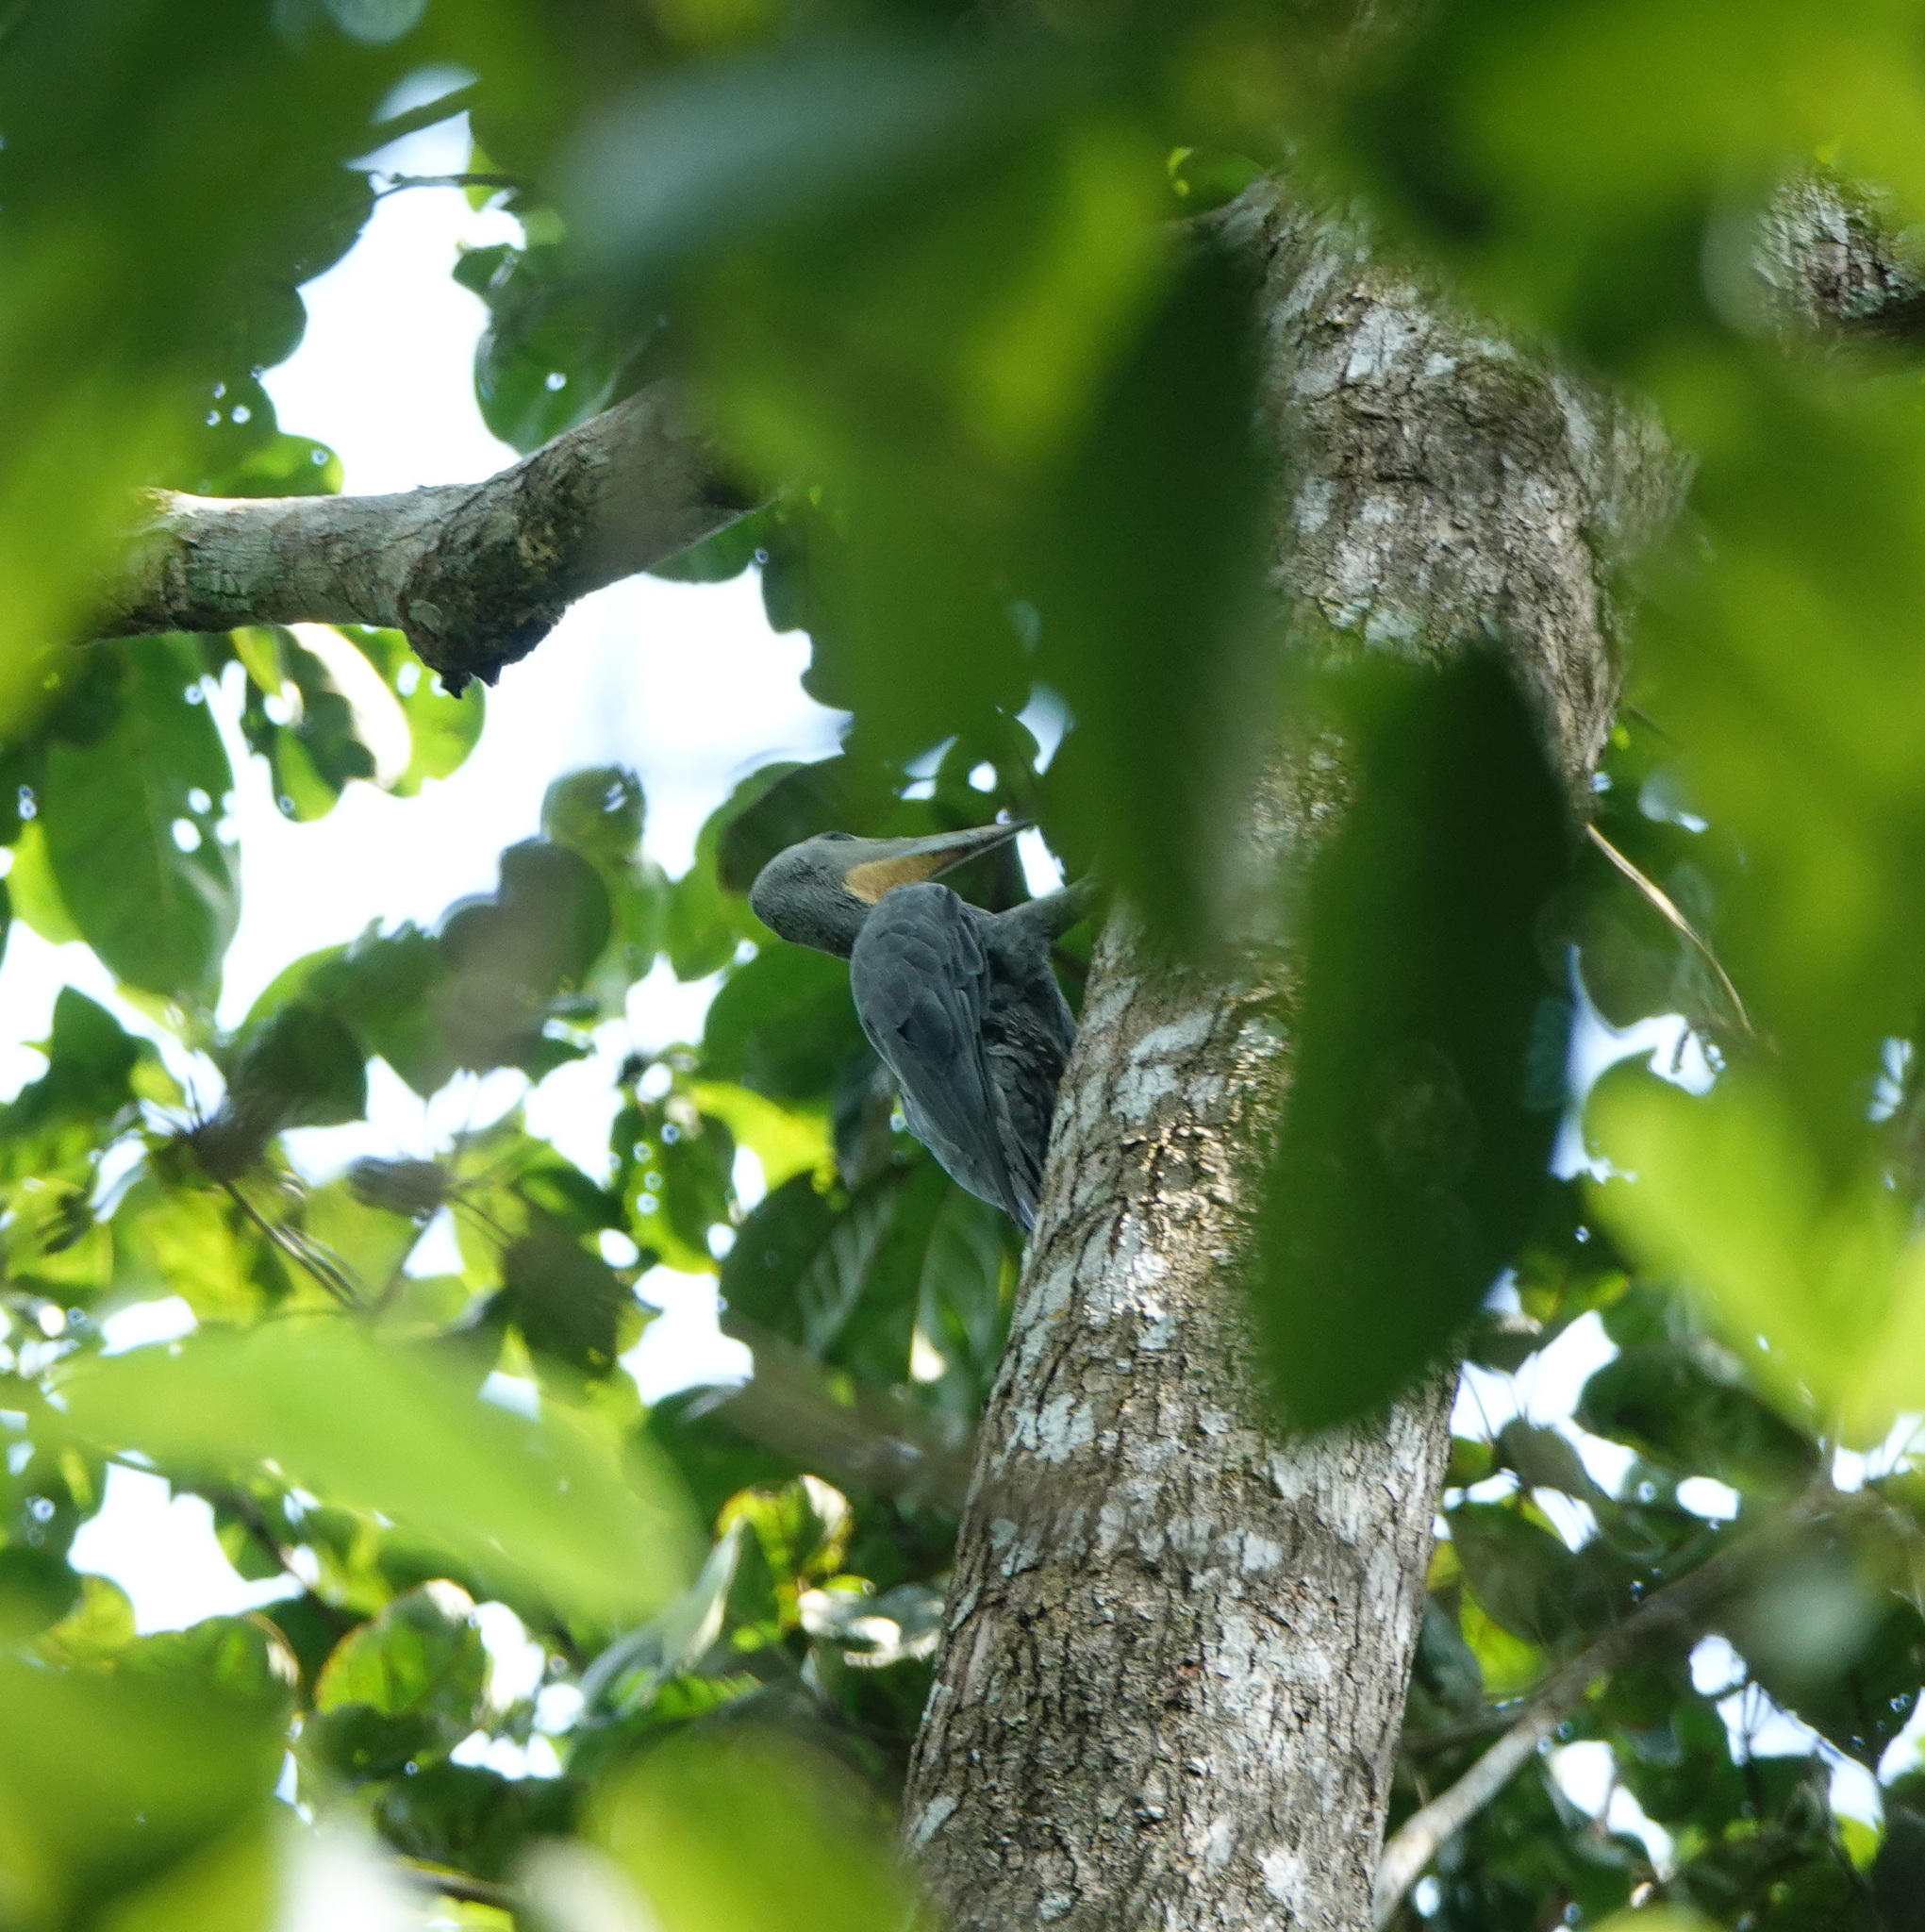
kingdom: Animalia
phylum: Chordata
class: Aves
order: Piciformes
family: Picidae
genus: Mulleripicus
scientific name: Mulleripicus pulverulentus
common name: Great slaty woodpecker
